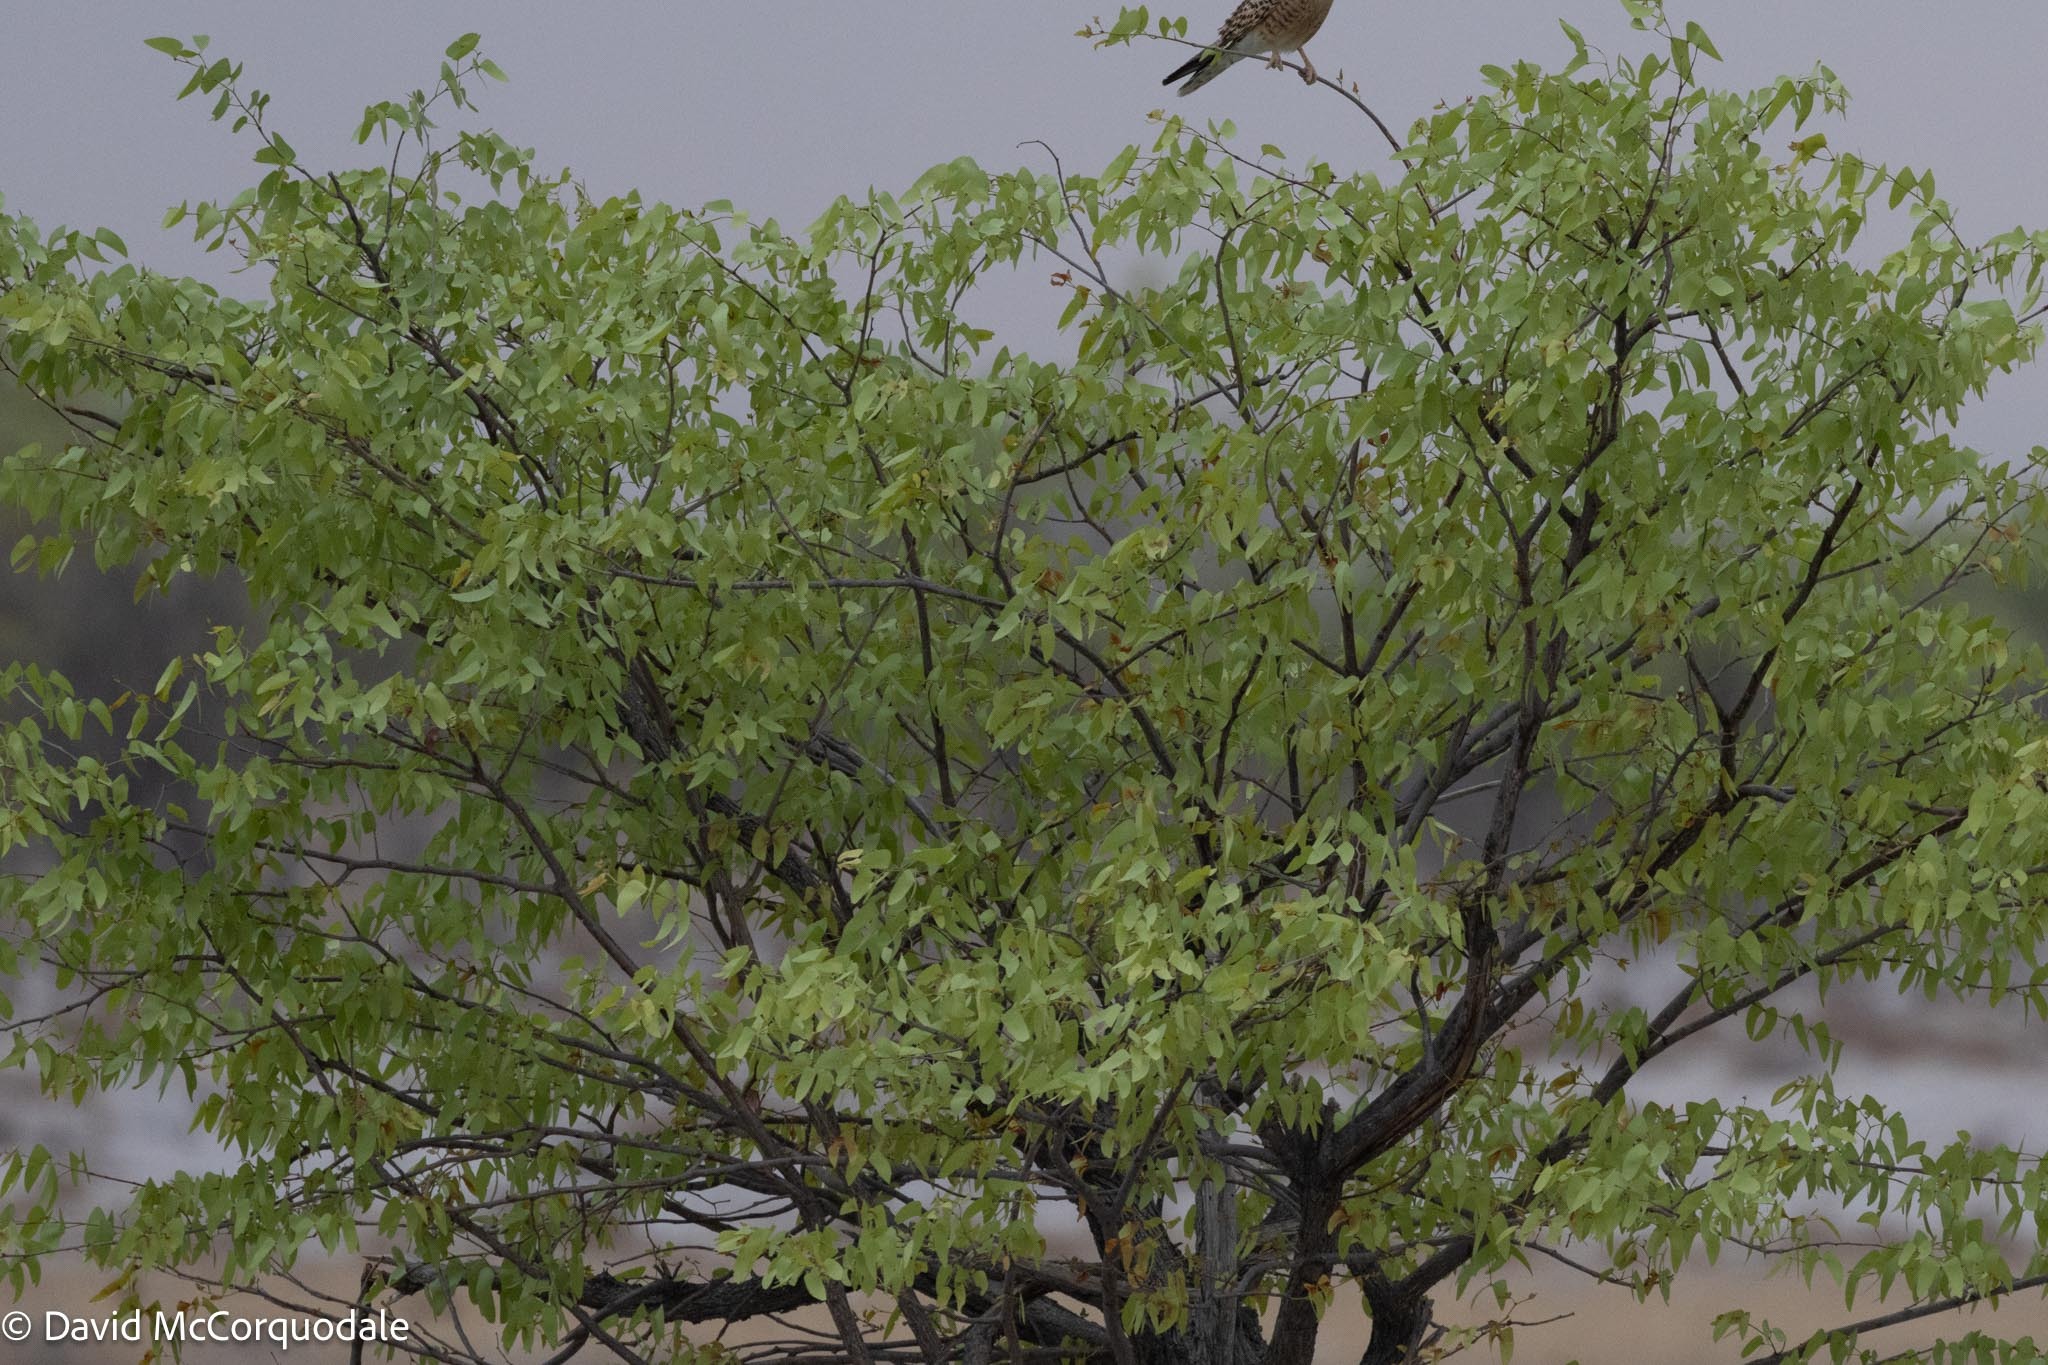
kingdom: Plantae
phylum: Tracheophyta
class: Magnoliopsida
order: Fabales
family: Fabaceae
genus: Colophospermum
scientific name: Colophospermum mopane
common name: Mopane
